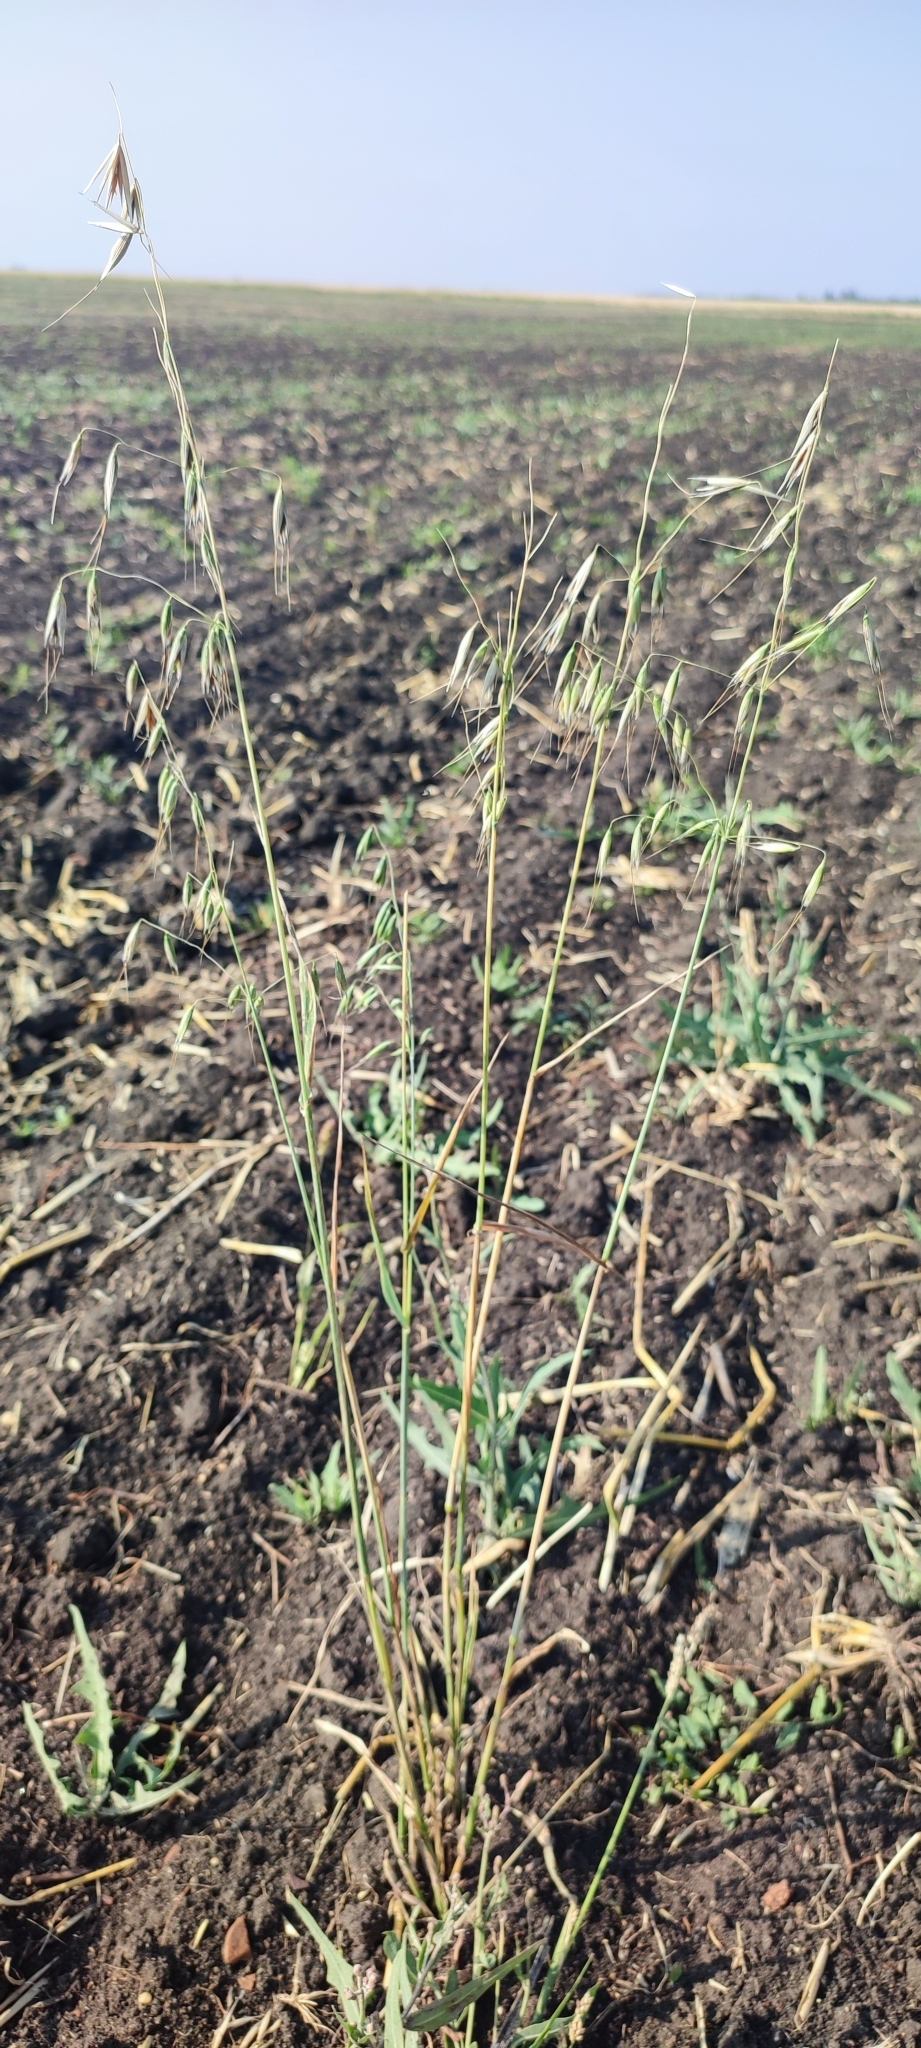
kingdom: Plantae
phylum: Tracheophyta
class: Liliopsida
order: Poales
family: Poaceae
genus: Avena
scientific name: Avena fatua
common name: Wild oat
